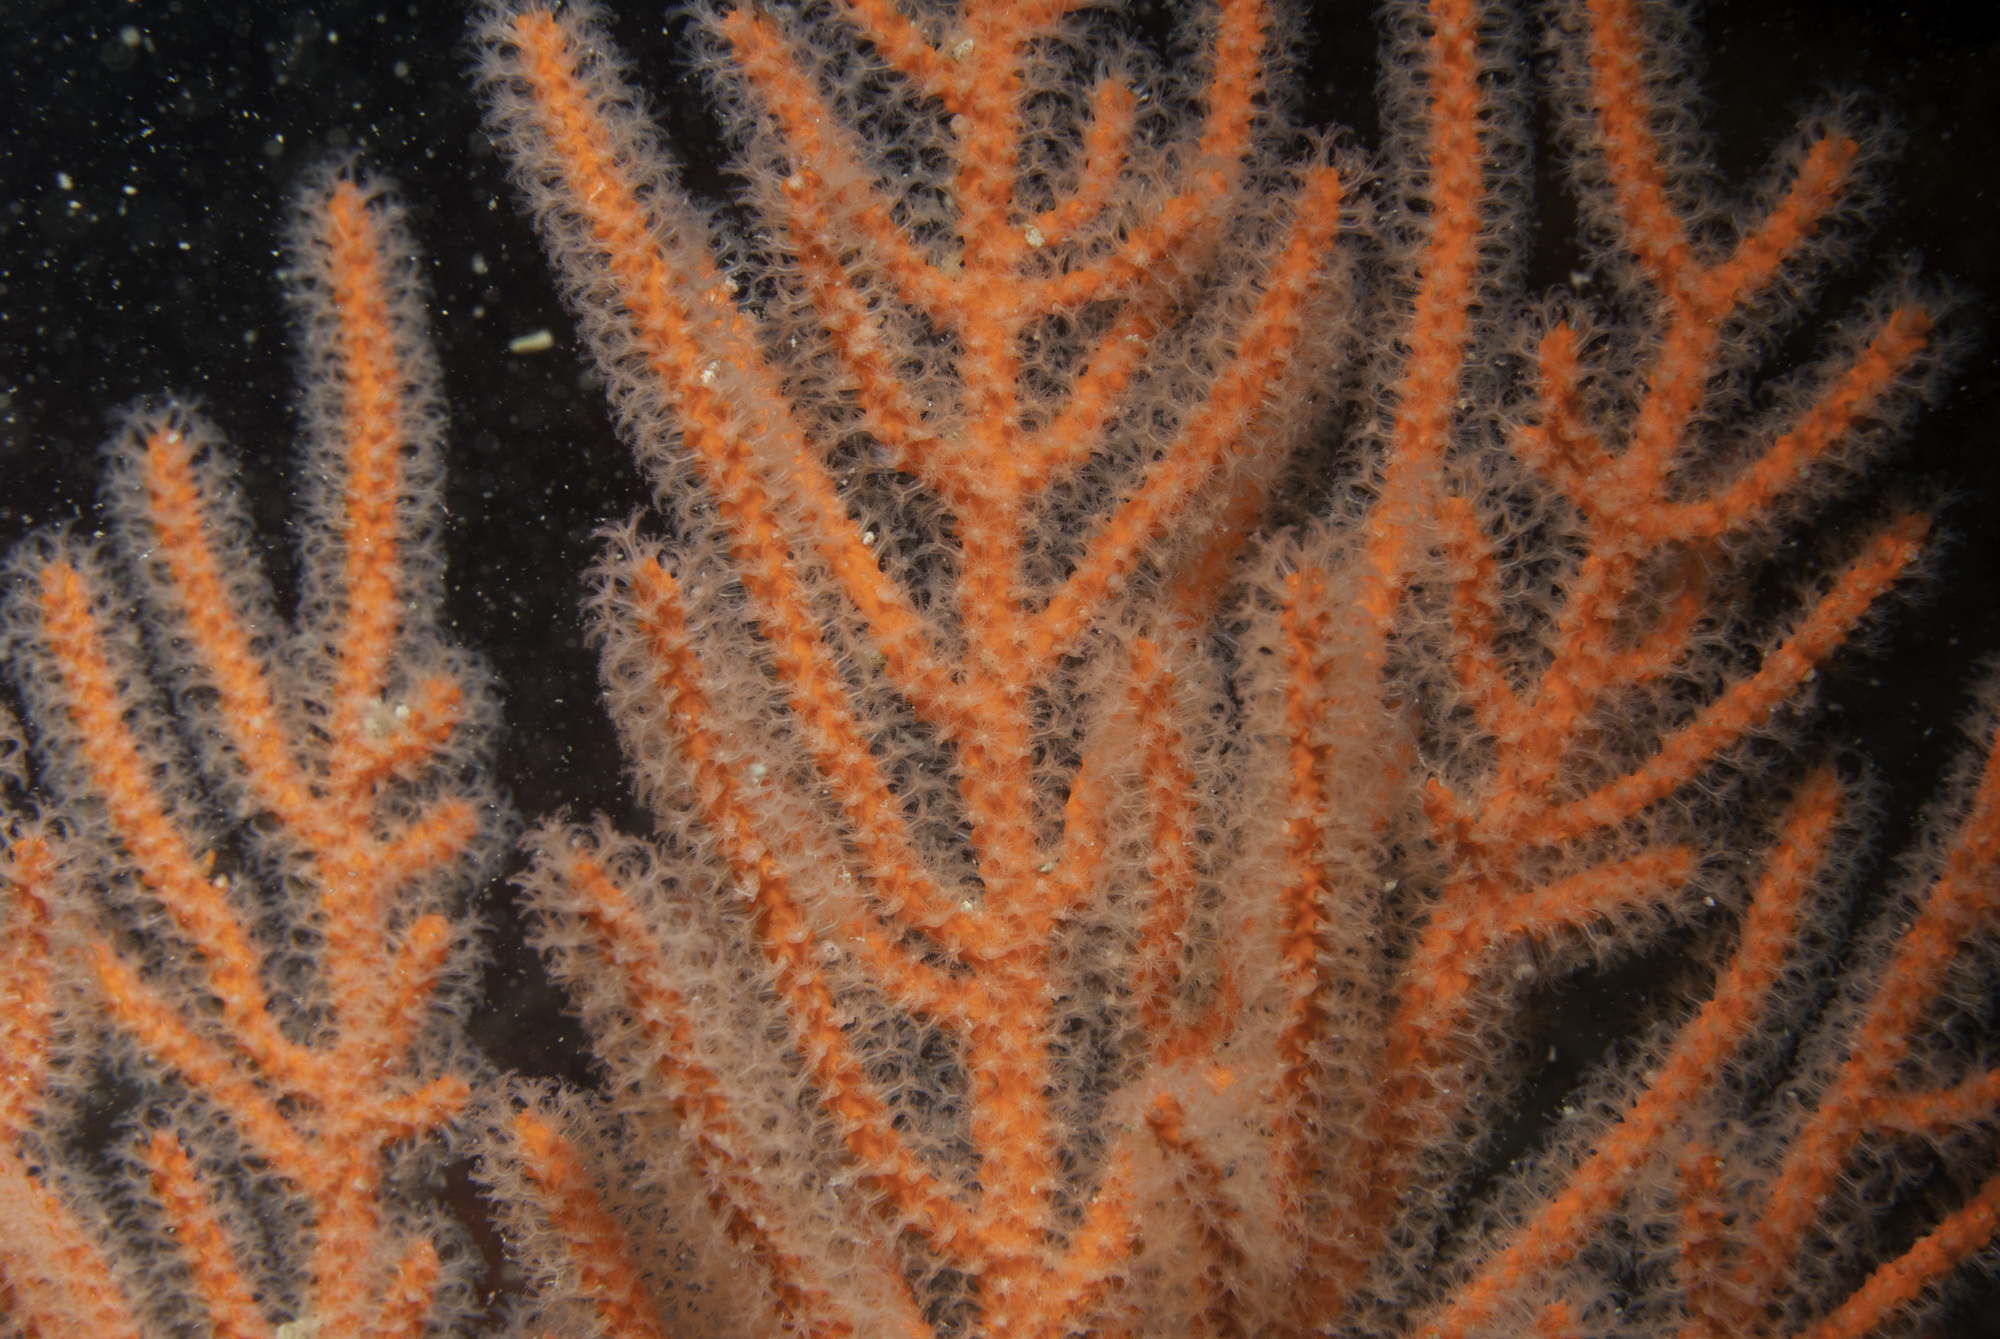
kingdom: Animalia
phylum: Cnidaria
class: Anthozoa
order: Malacalcyonacea
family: Gorgoniidae
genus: Leptogorgia
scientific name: Leptogorgia palma
